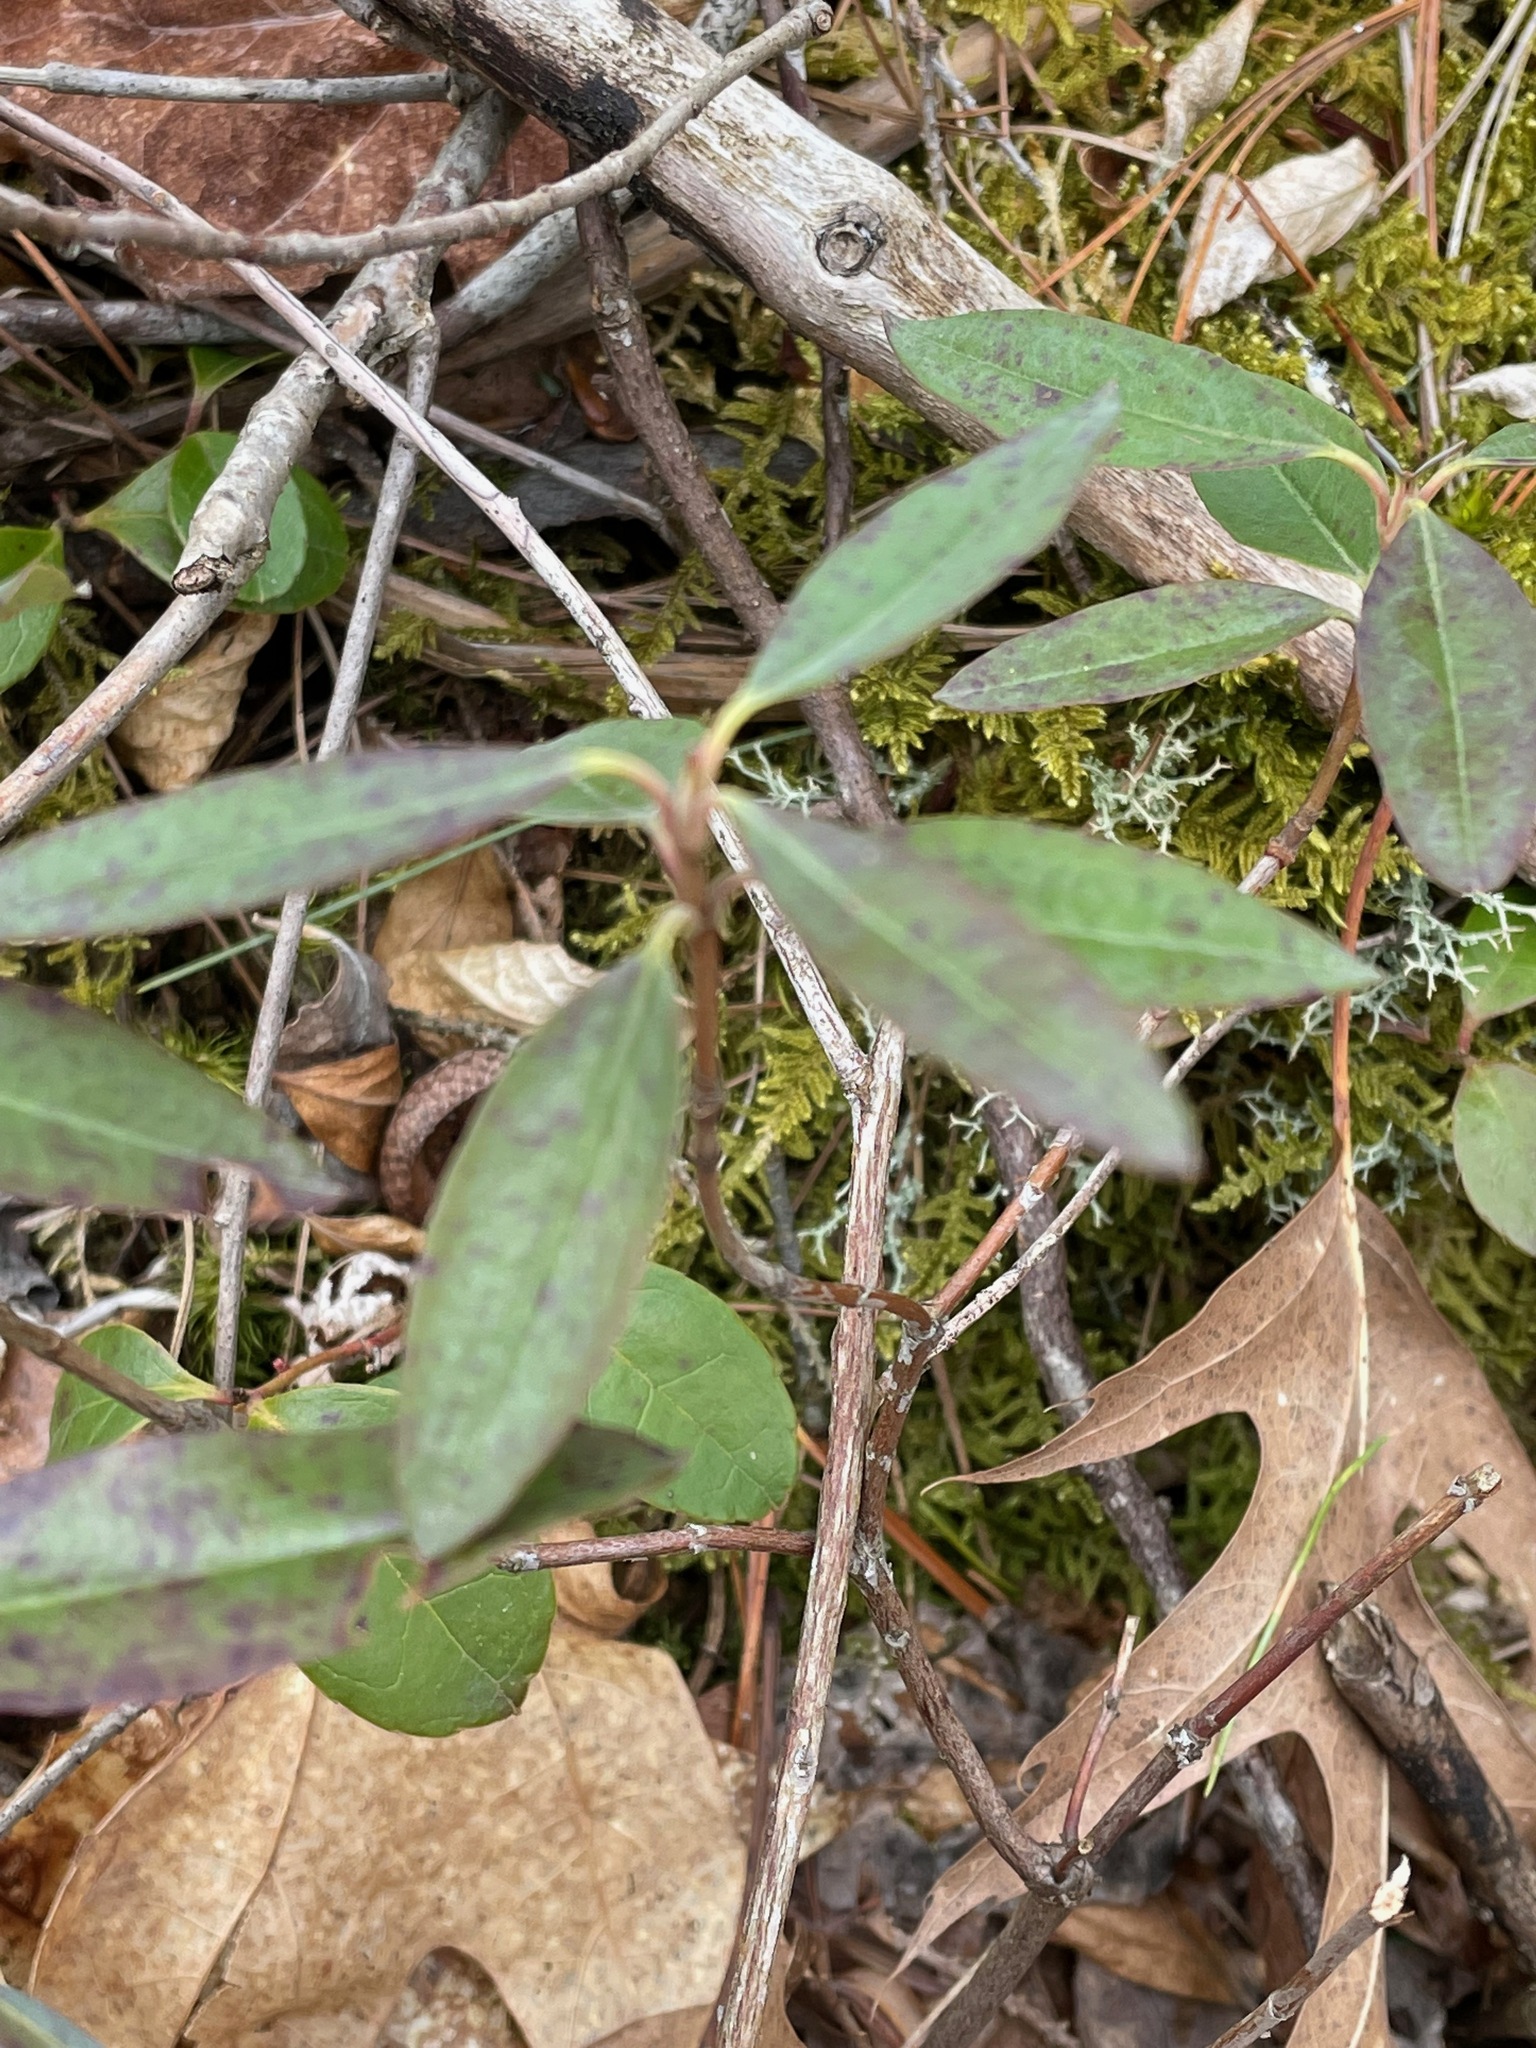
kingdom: Plantae
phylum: Tracheophyta
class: Magnoliopsida
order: Ericales
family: Ericaceae
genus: Kalmia
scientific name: Kalmia angustifolia
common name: Sheep-laurel
